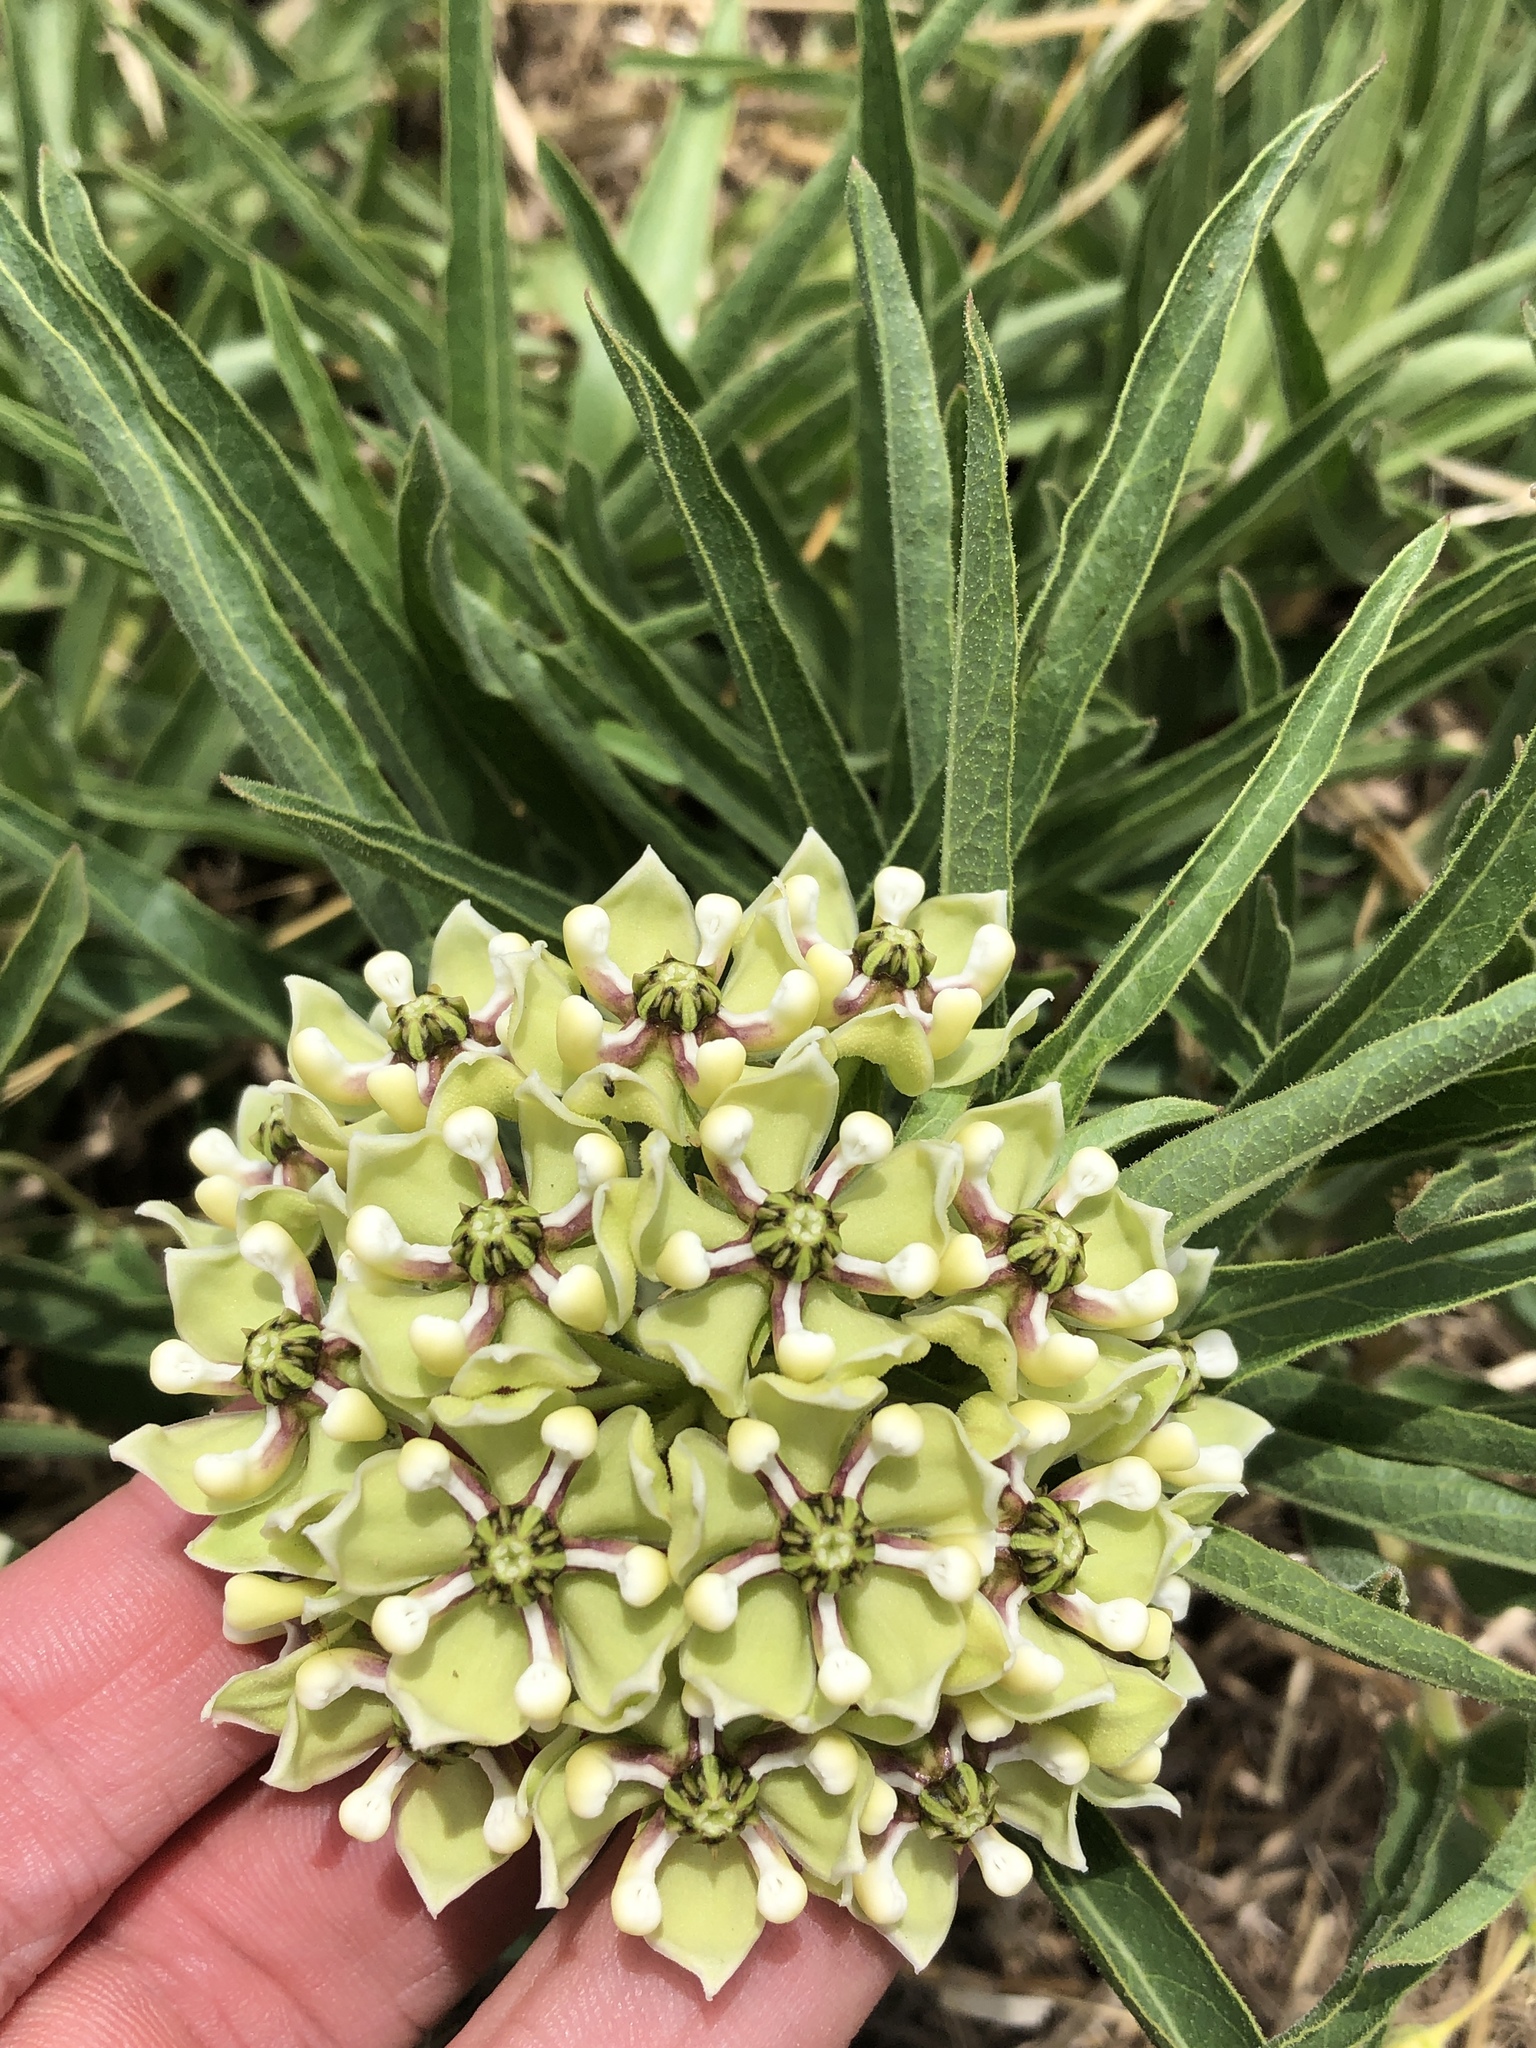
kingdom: Plantae
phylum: Tracheophyta
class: Magnoliopsida
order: Gentianales
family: Apocynaceae
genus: Asclepias
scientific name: Asclepias asperula
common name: Antelope horns
